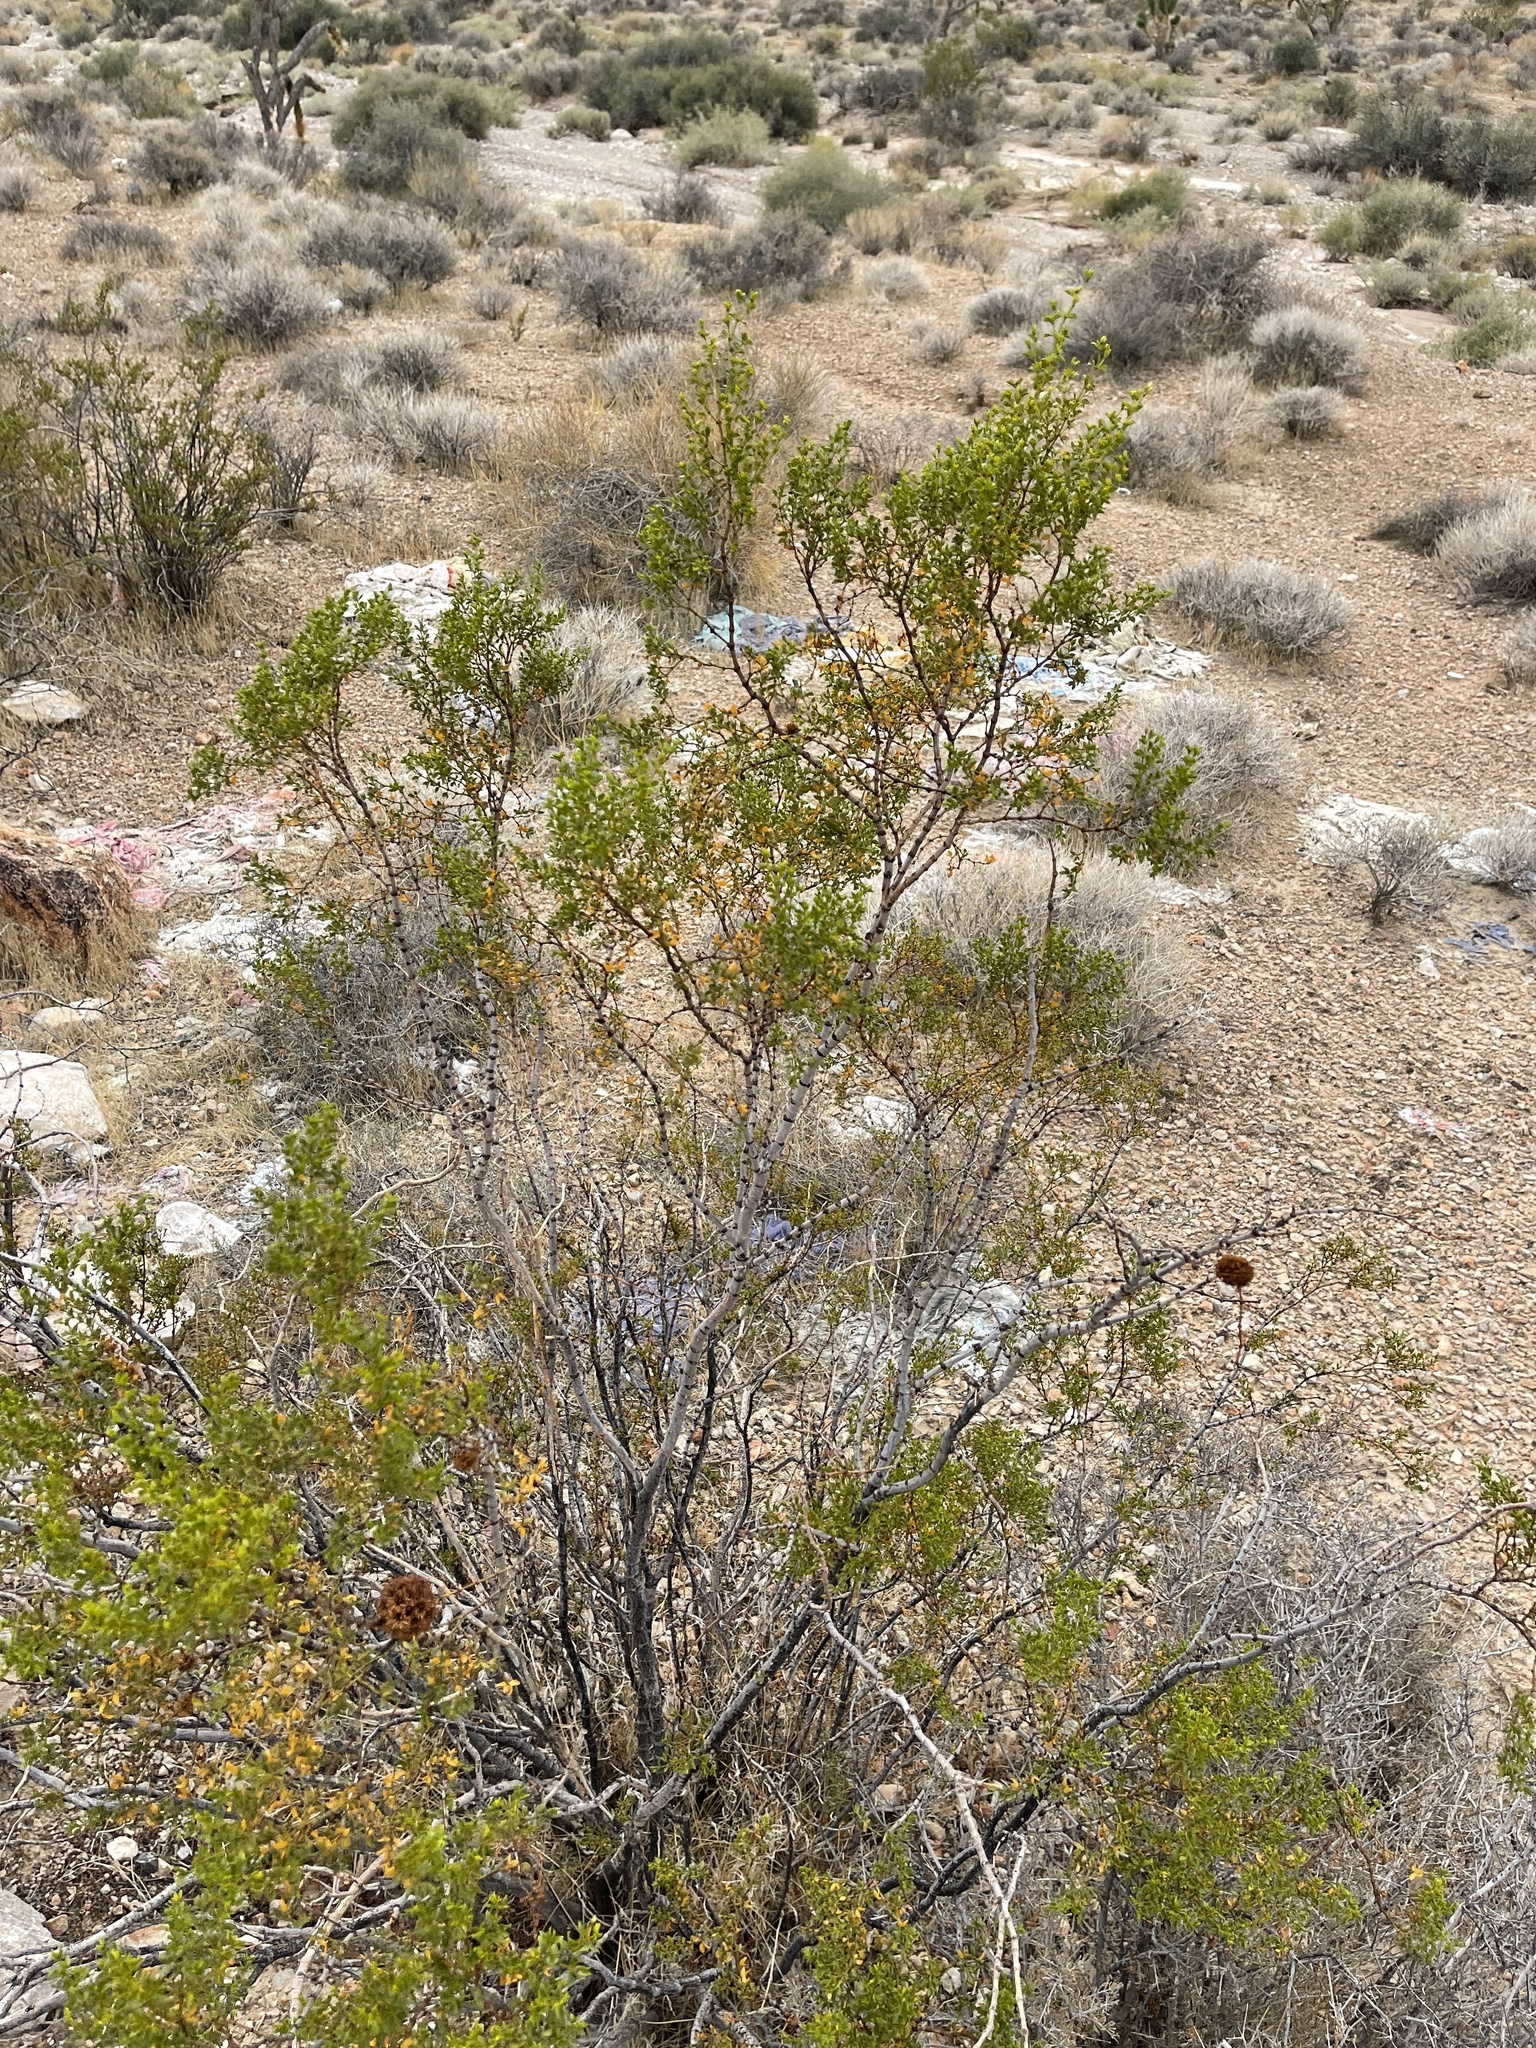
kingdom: Plantae
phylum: Tracheophyta
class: Magnoliopsida
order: Zygophyllales
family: Zygophyllaceae
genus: Larrea
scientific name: Larrea tridentata
